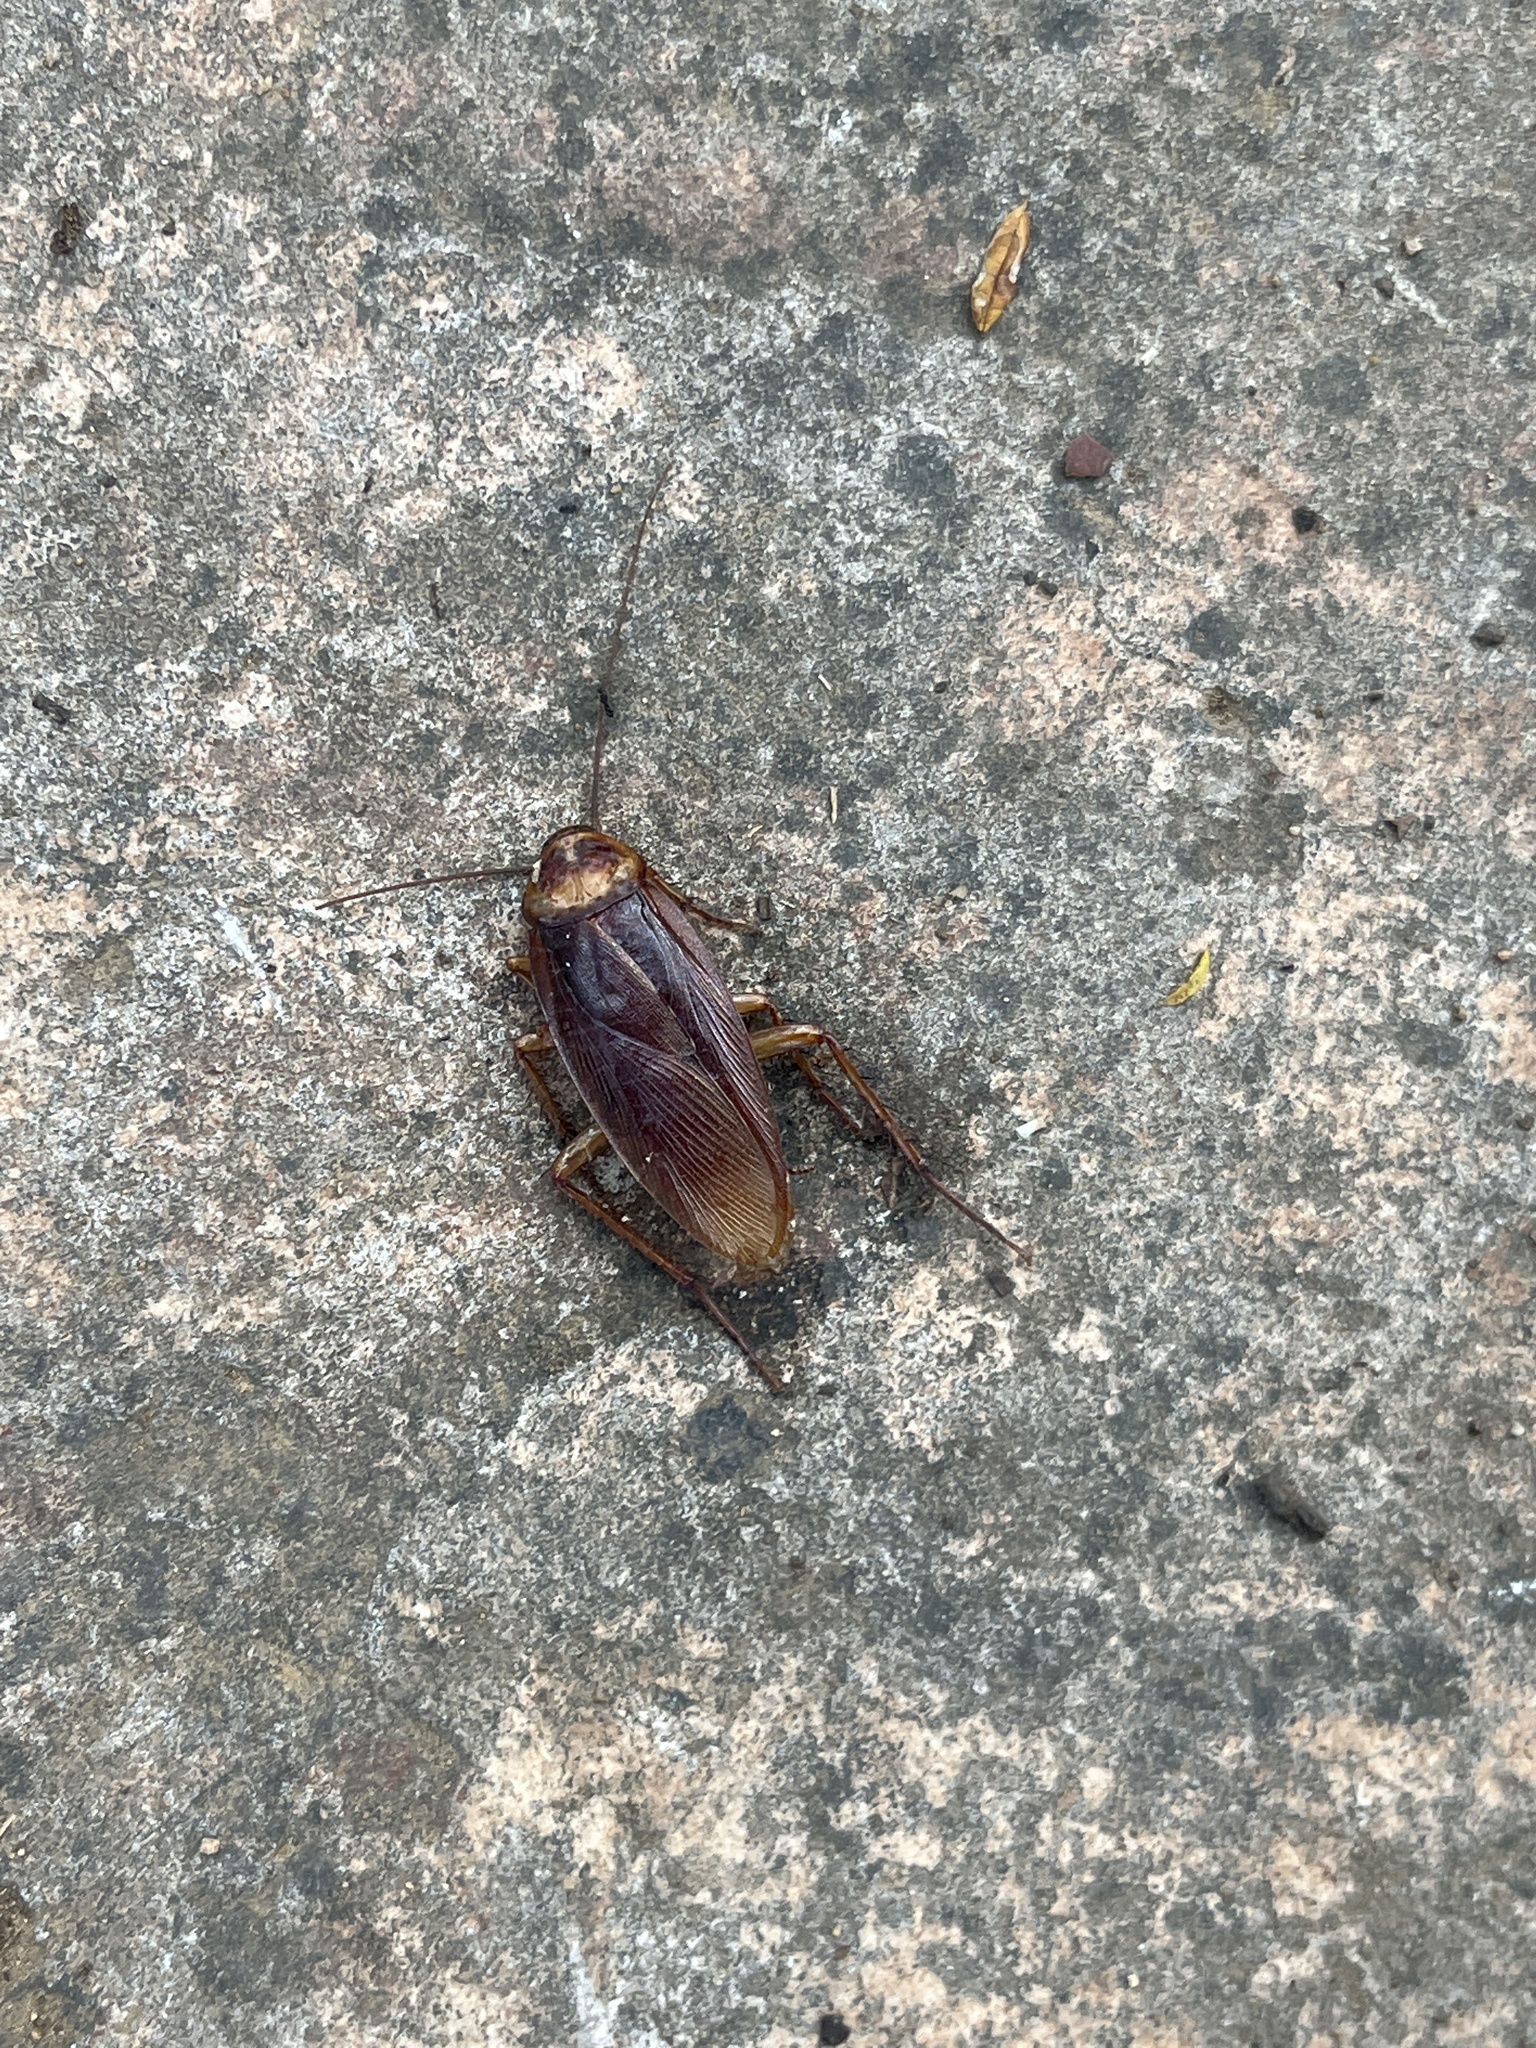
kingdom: Animalia
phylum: Arthropoda
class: Insecta
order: Blattodea
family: Blattidae
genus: Periplaneta
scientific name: Periplaneta americana
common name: American cockroach
